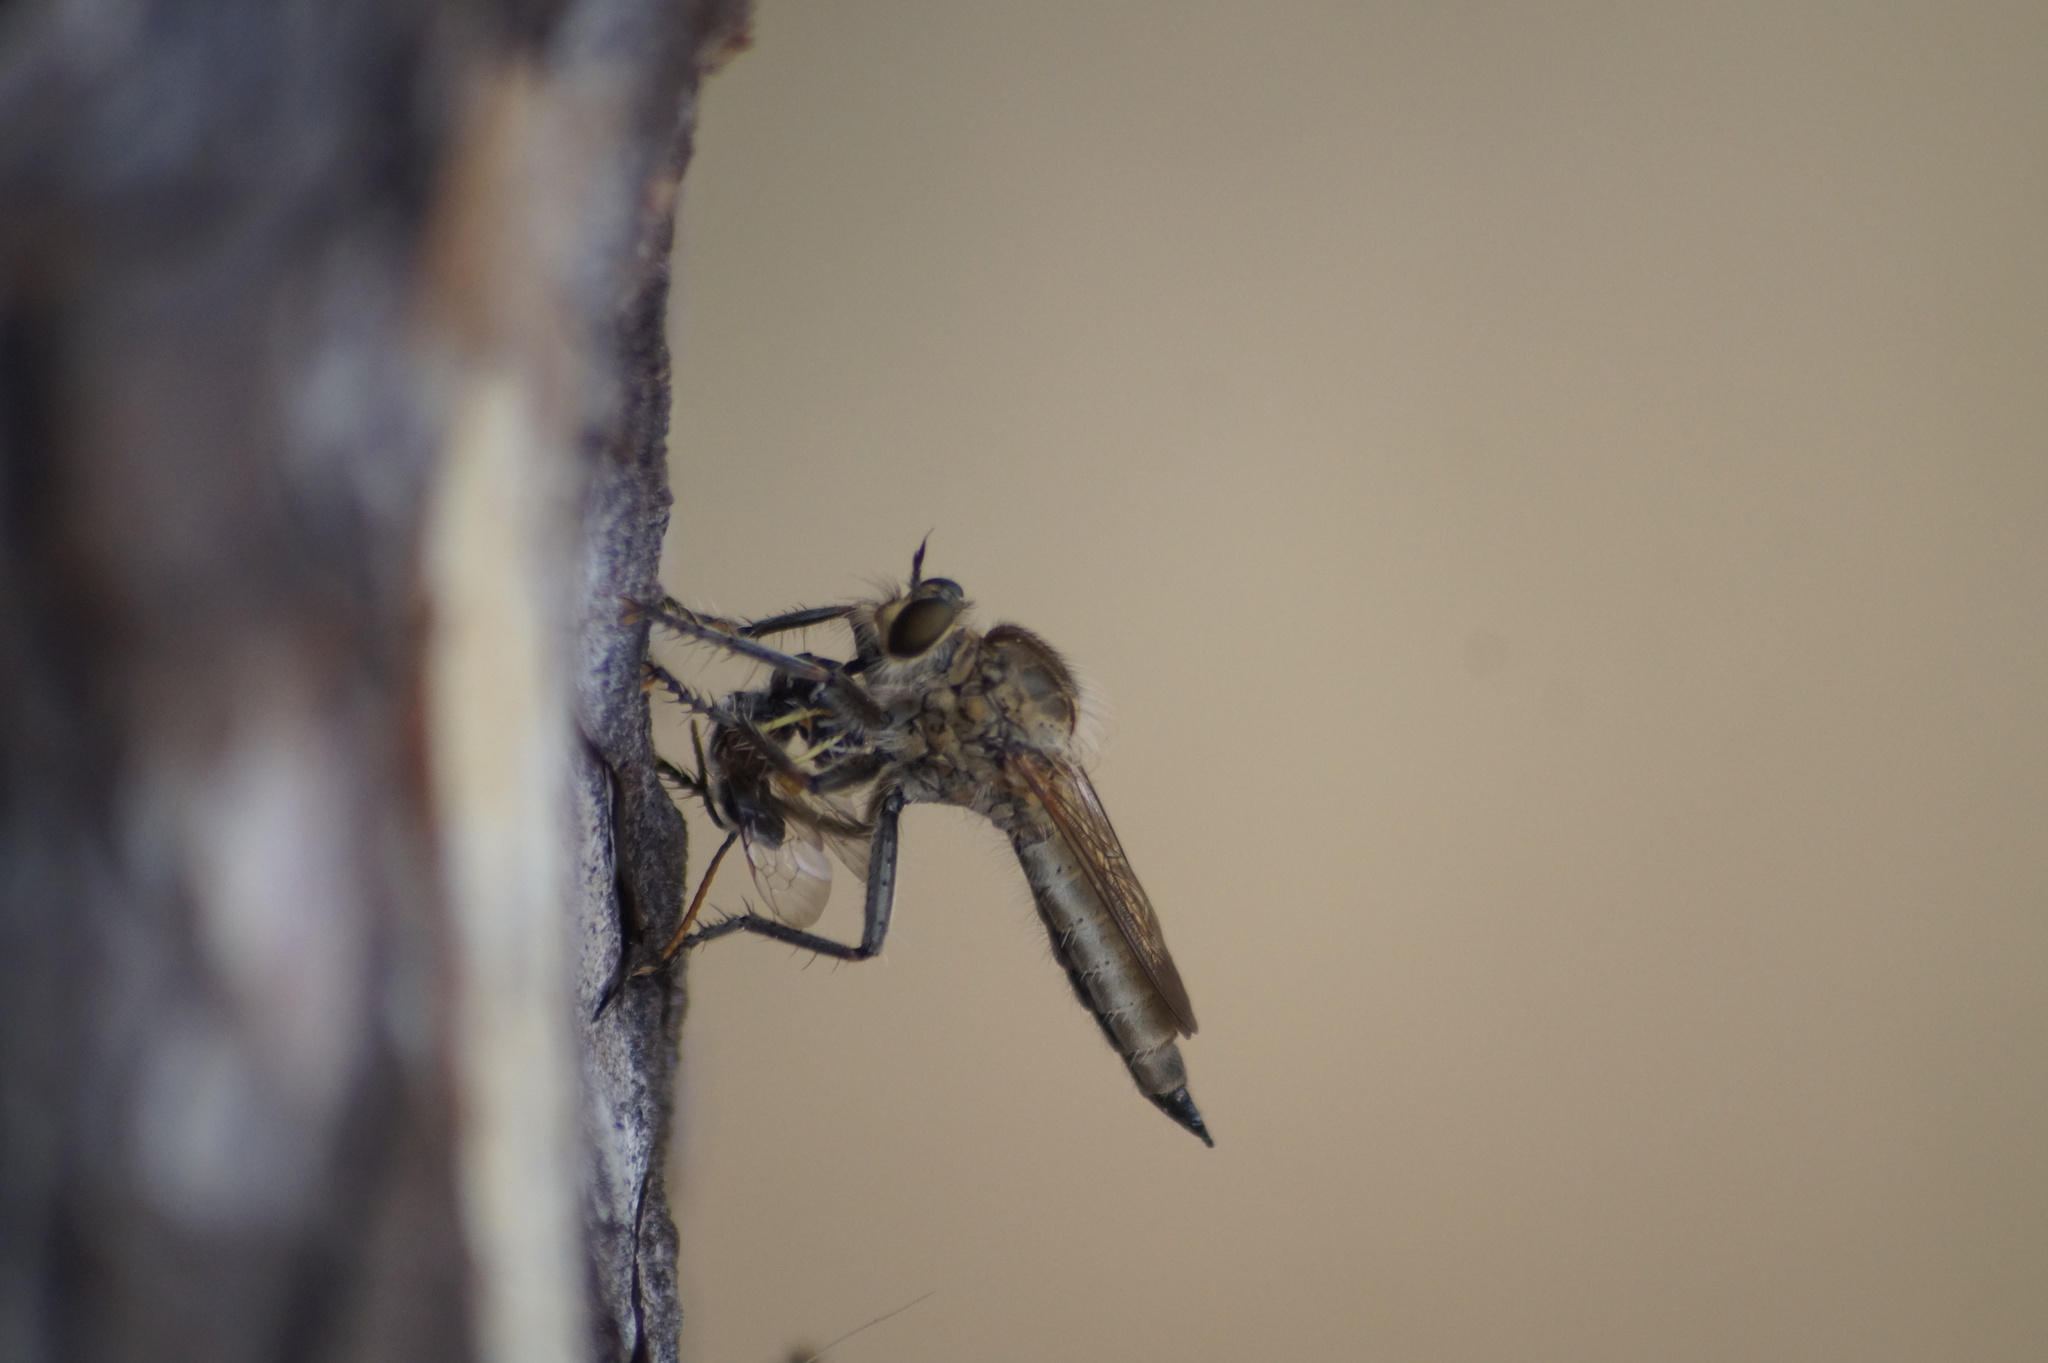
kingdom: Animalia
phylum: Arthropoda
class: Insecta
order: Diptera
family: Asilidae
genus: Machimus
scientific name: Machimus rusticus
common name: Downland robberfly
